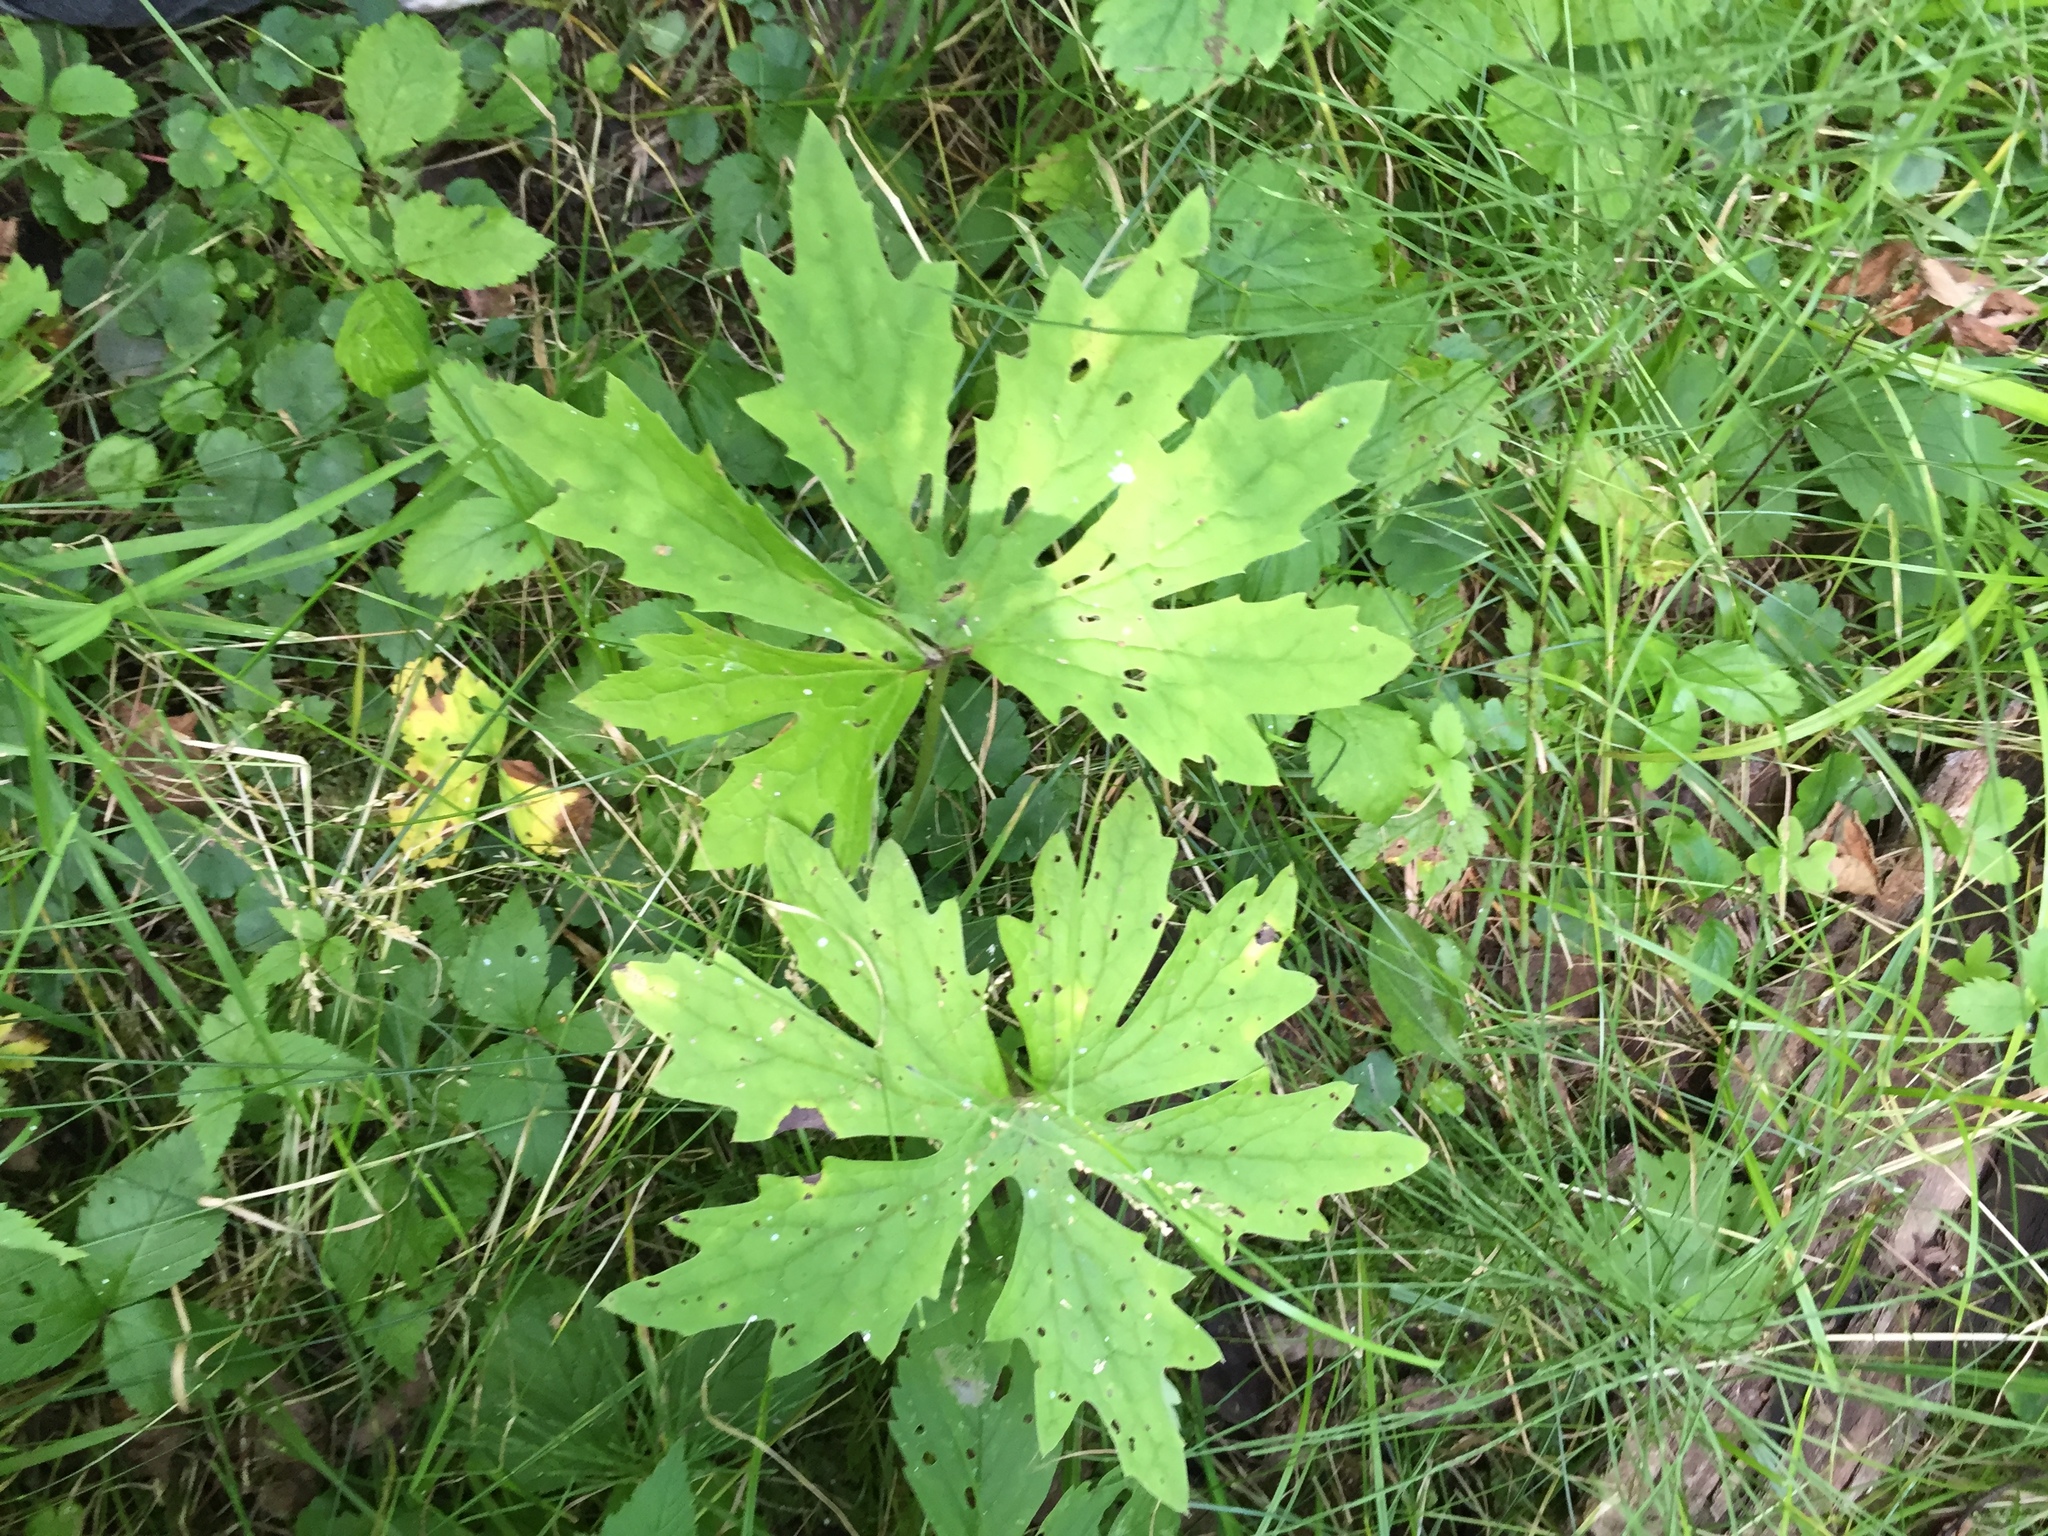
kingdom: Plantae
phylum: Tracheophyta
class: Magnoliopsida
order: Asterales
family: Asteraceae
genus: Petasites
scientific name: Petasites frigidus
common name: Arctic butterbur
